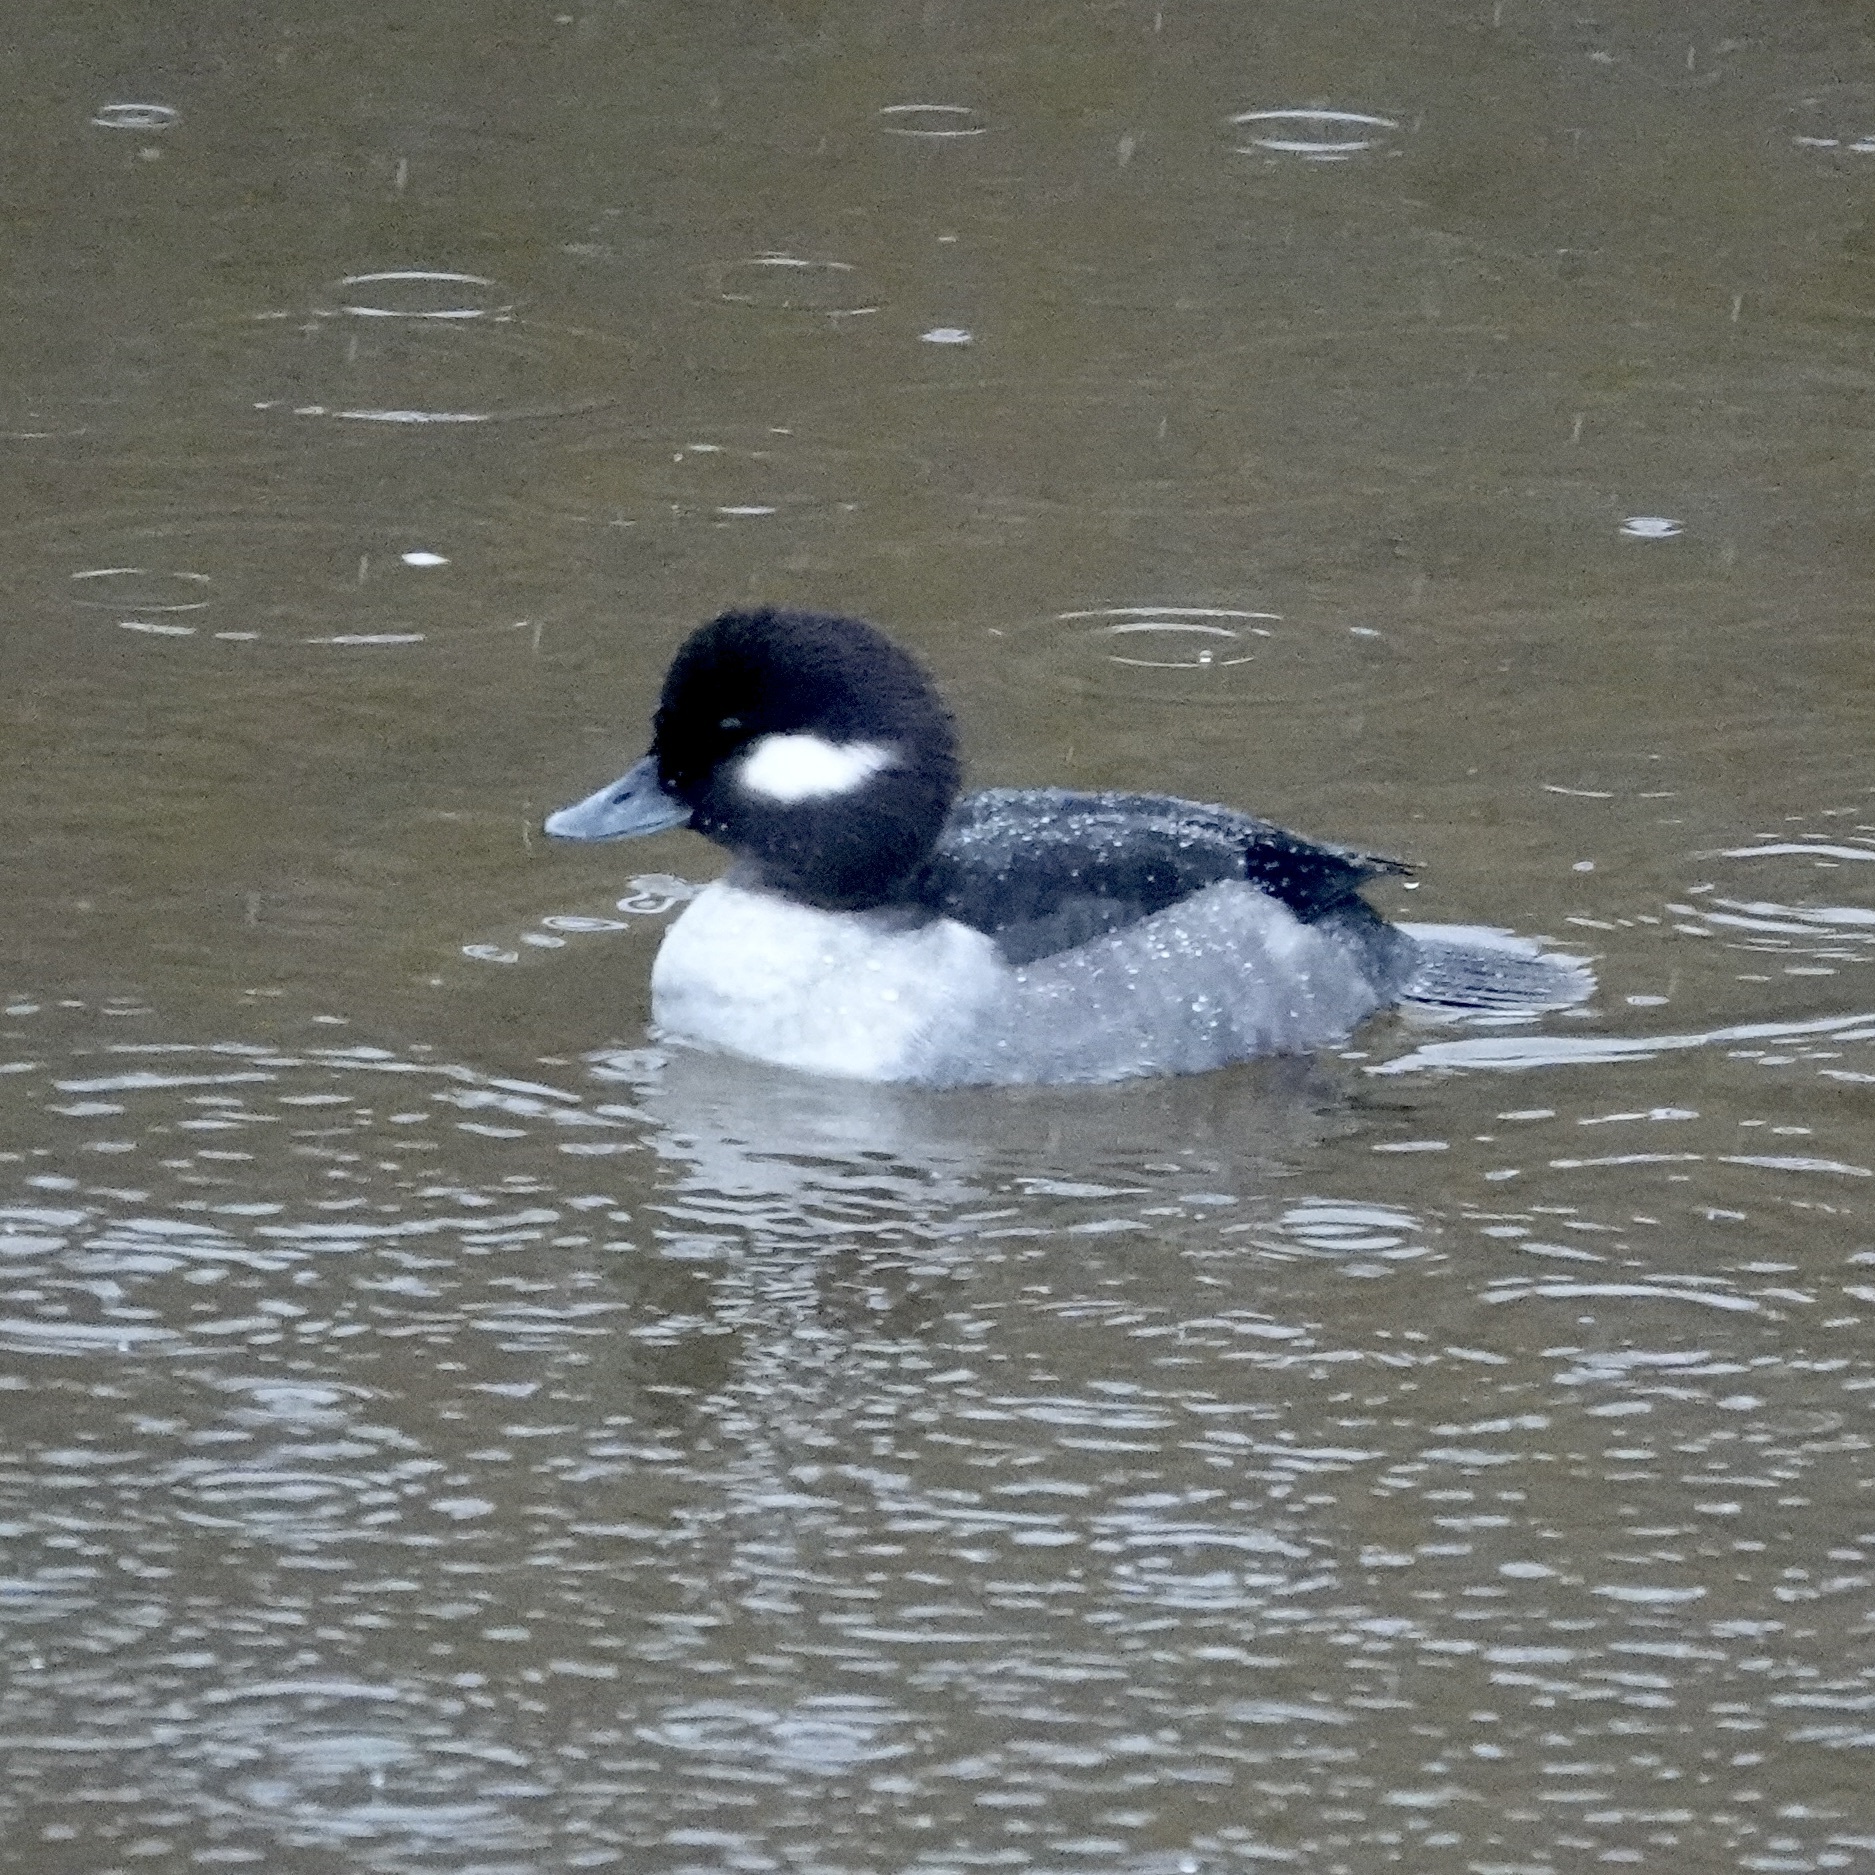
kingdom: Animalia
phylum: Chordata
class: Aves
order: Anseriformes
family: Anatidae
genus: Bucephala
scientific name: Bucephala albeola
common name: Bufflehead
